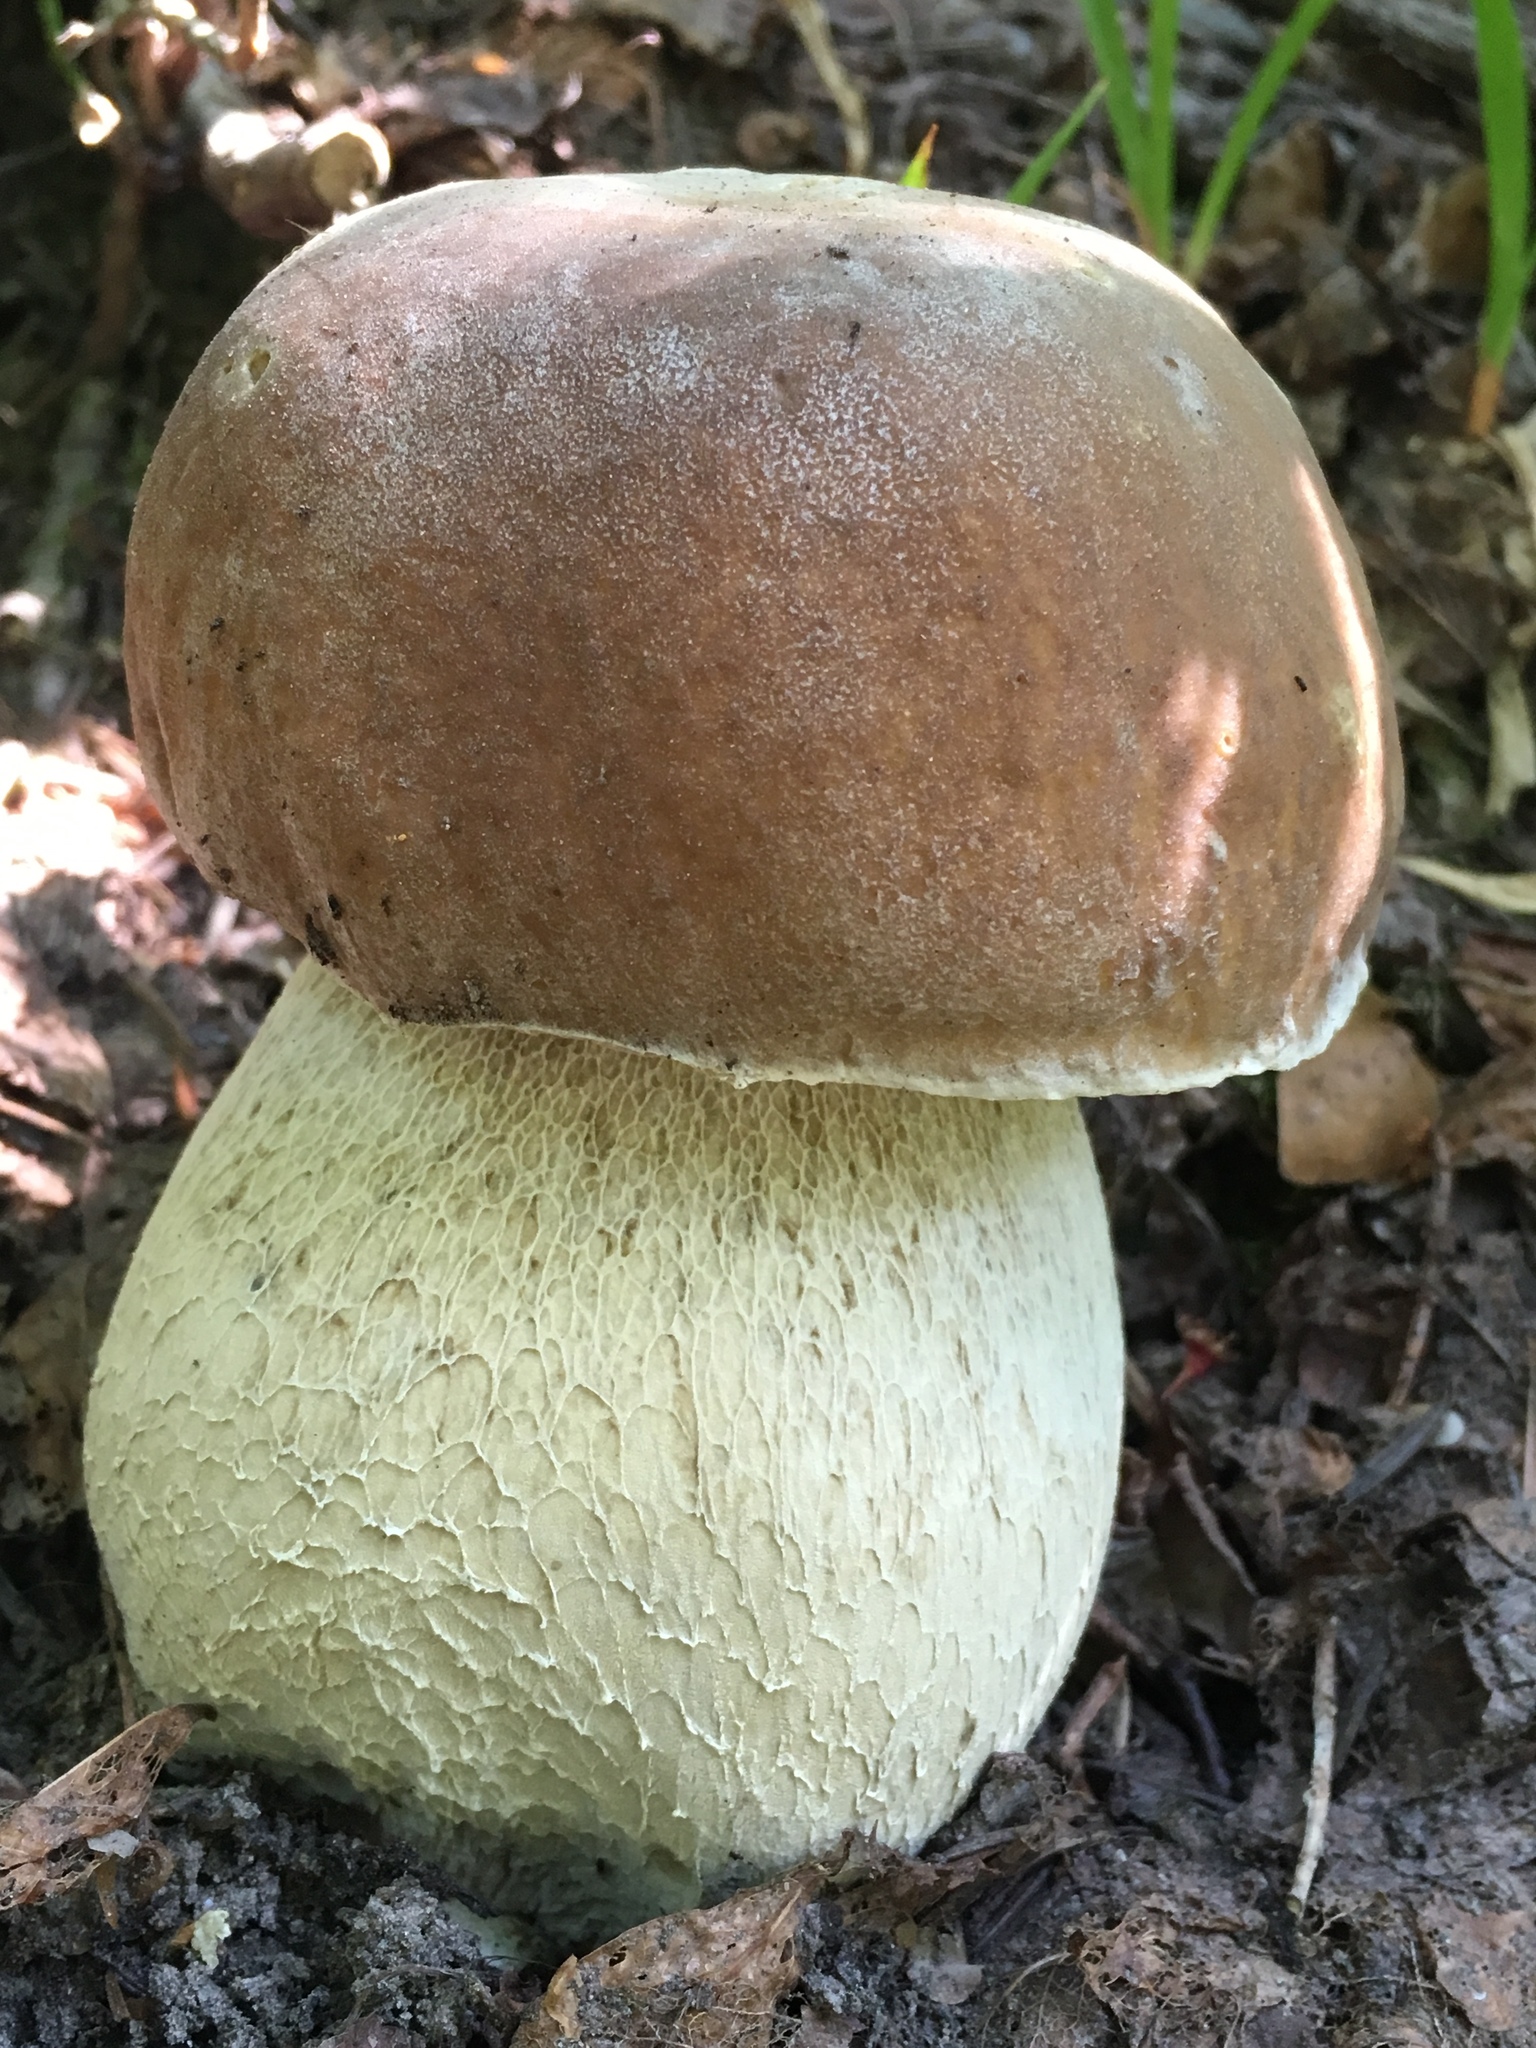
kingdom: Fungi
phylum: Basidiomycota
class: Agaricomycetes
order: Boletales
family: Boletaceae
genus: Boletus
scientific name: Boletus edulis
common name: Cep
